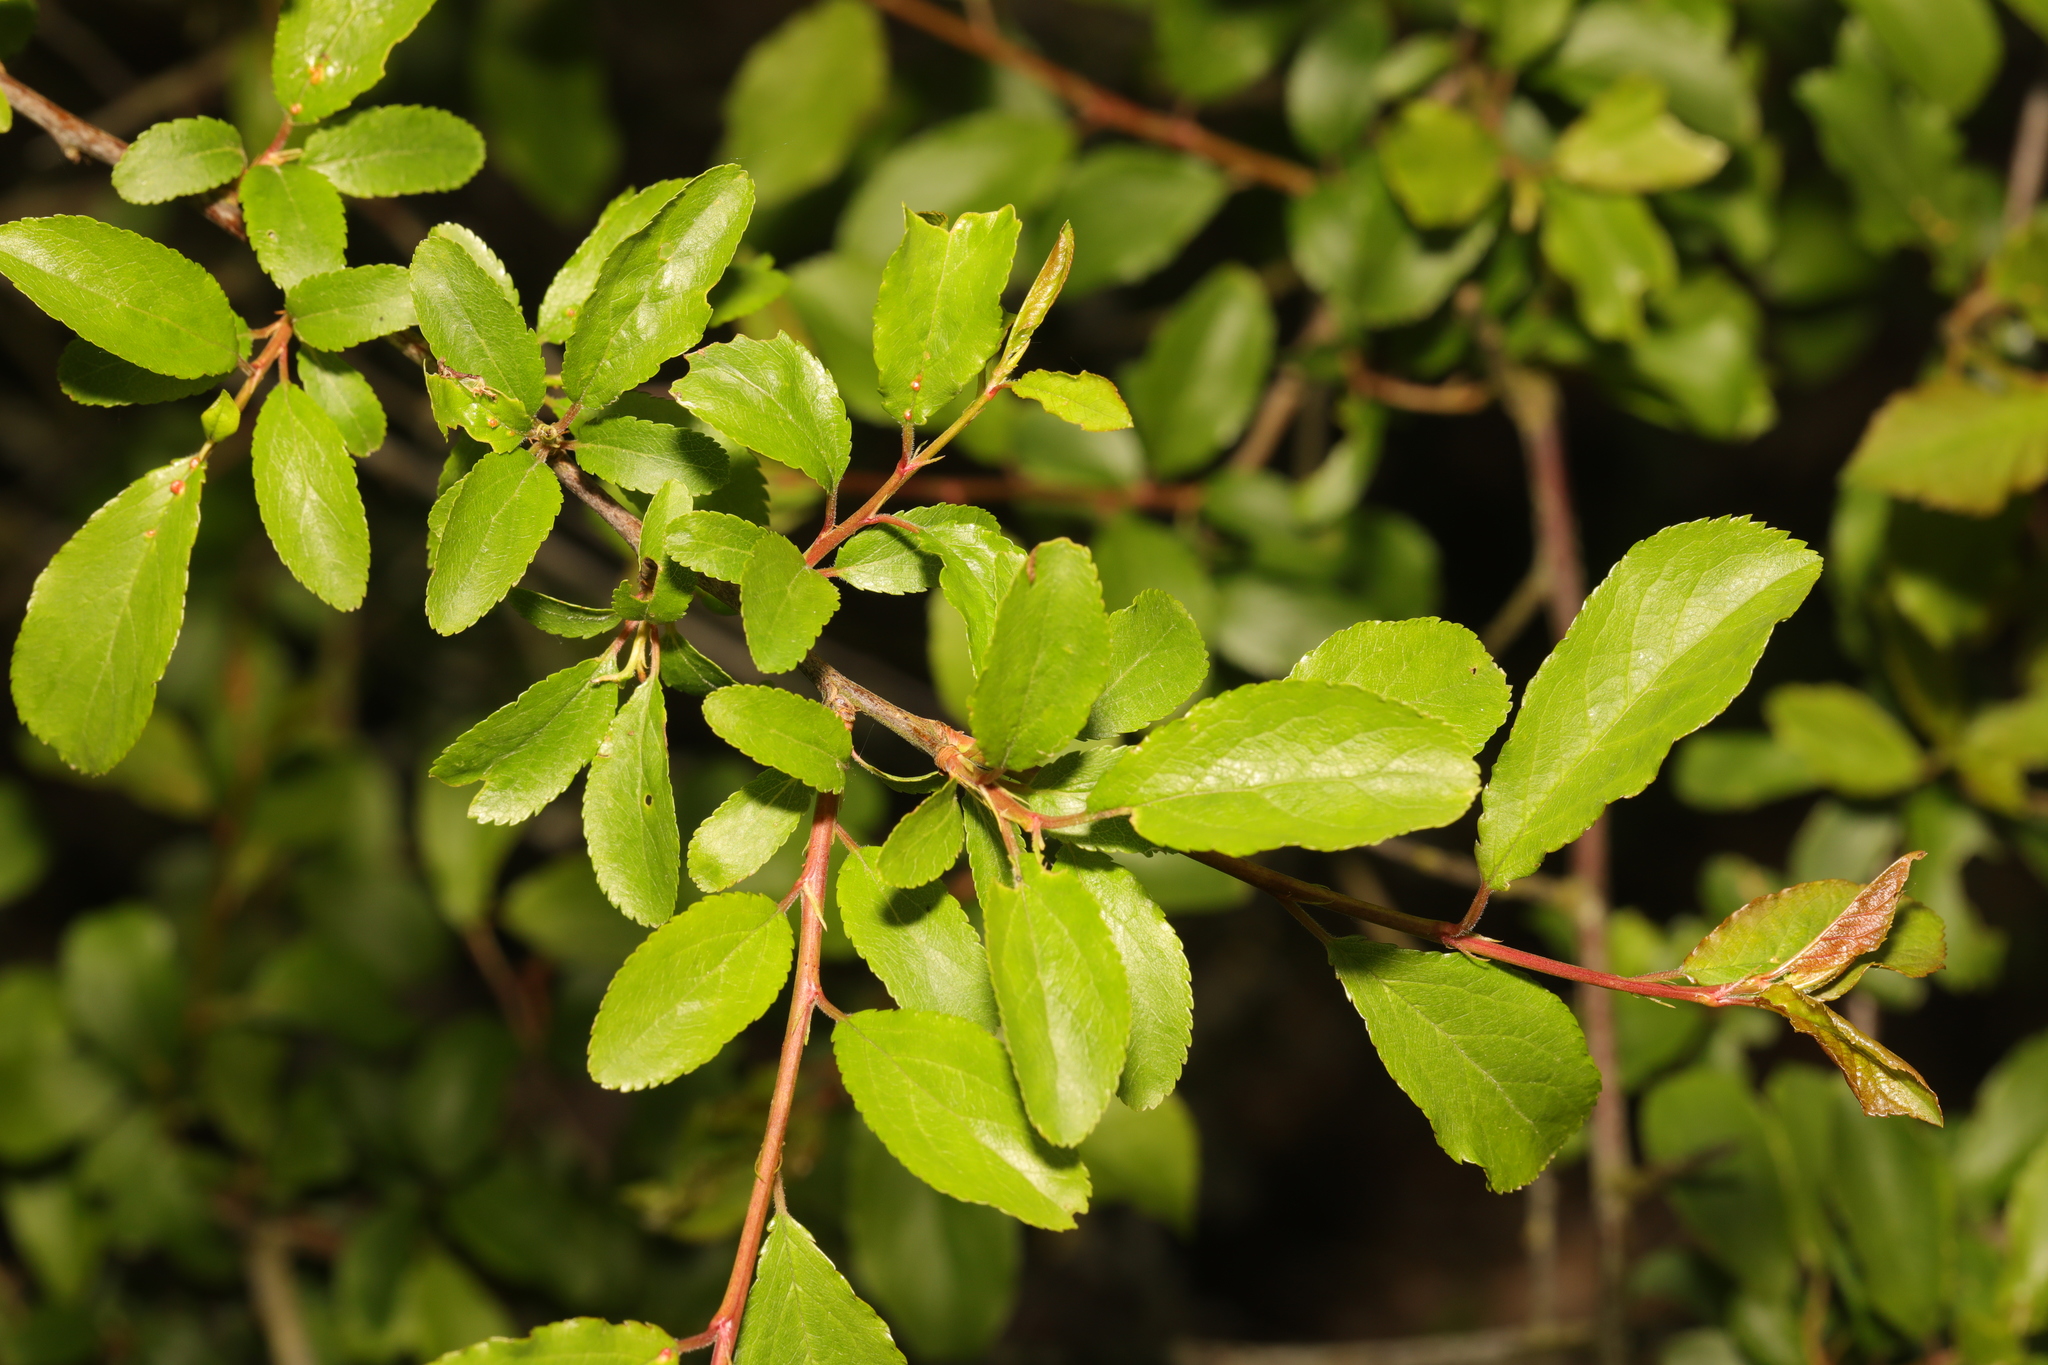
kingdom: Plantae
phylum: Tracheophyta
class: Magnoliopsida
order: Rosales
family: Rosaceae
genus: Prunus
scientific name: Prunus spinosa
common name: Blackthorn
